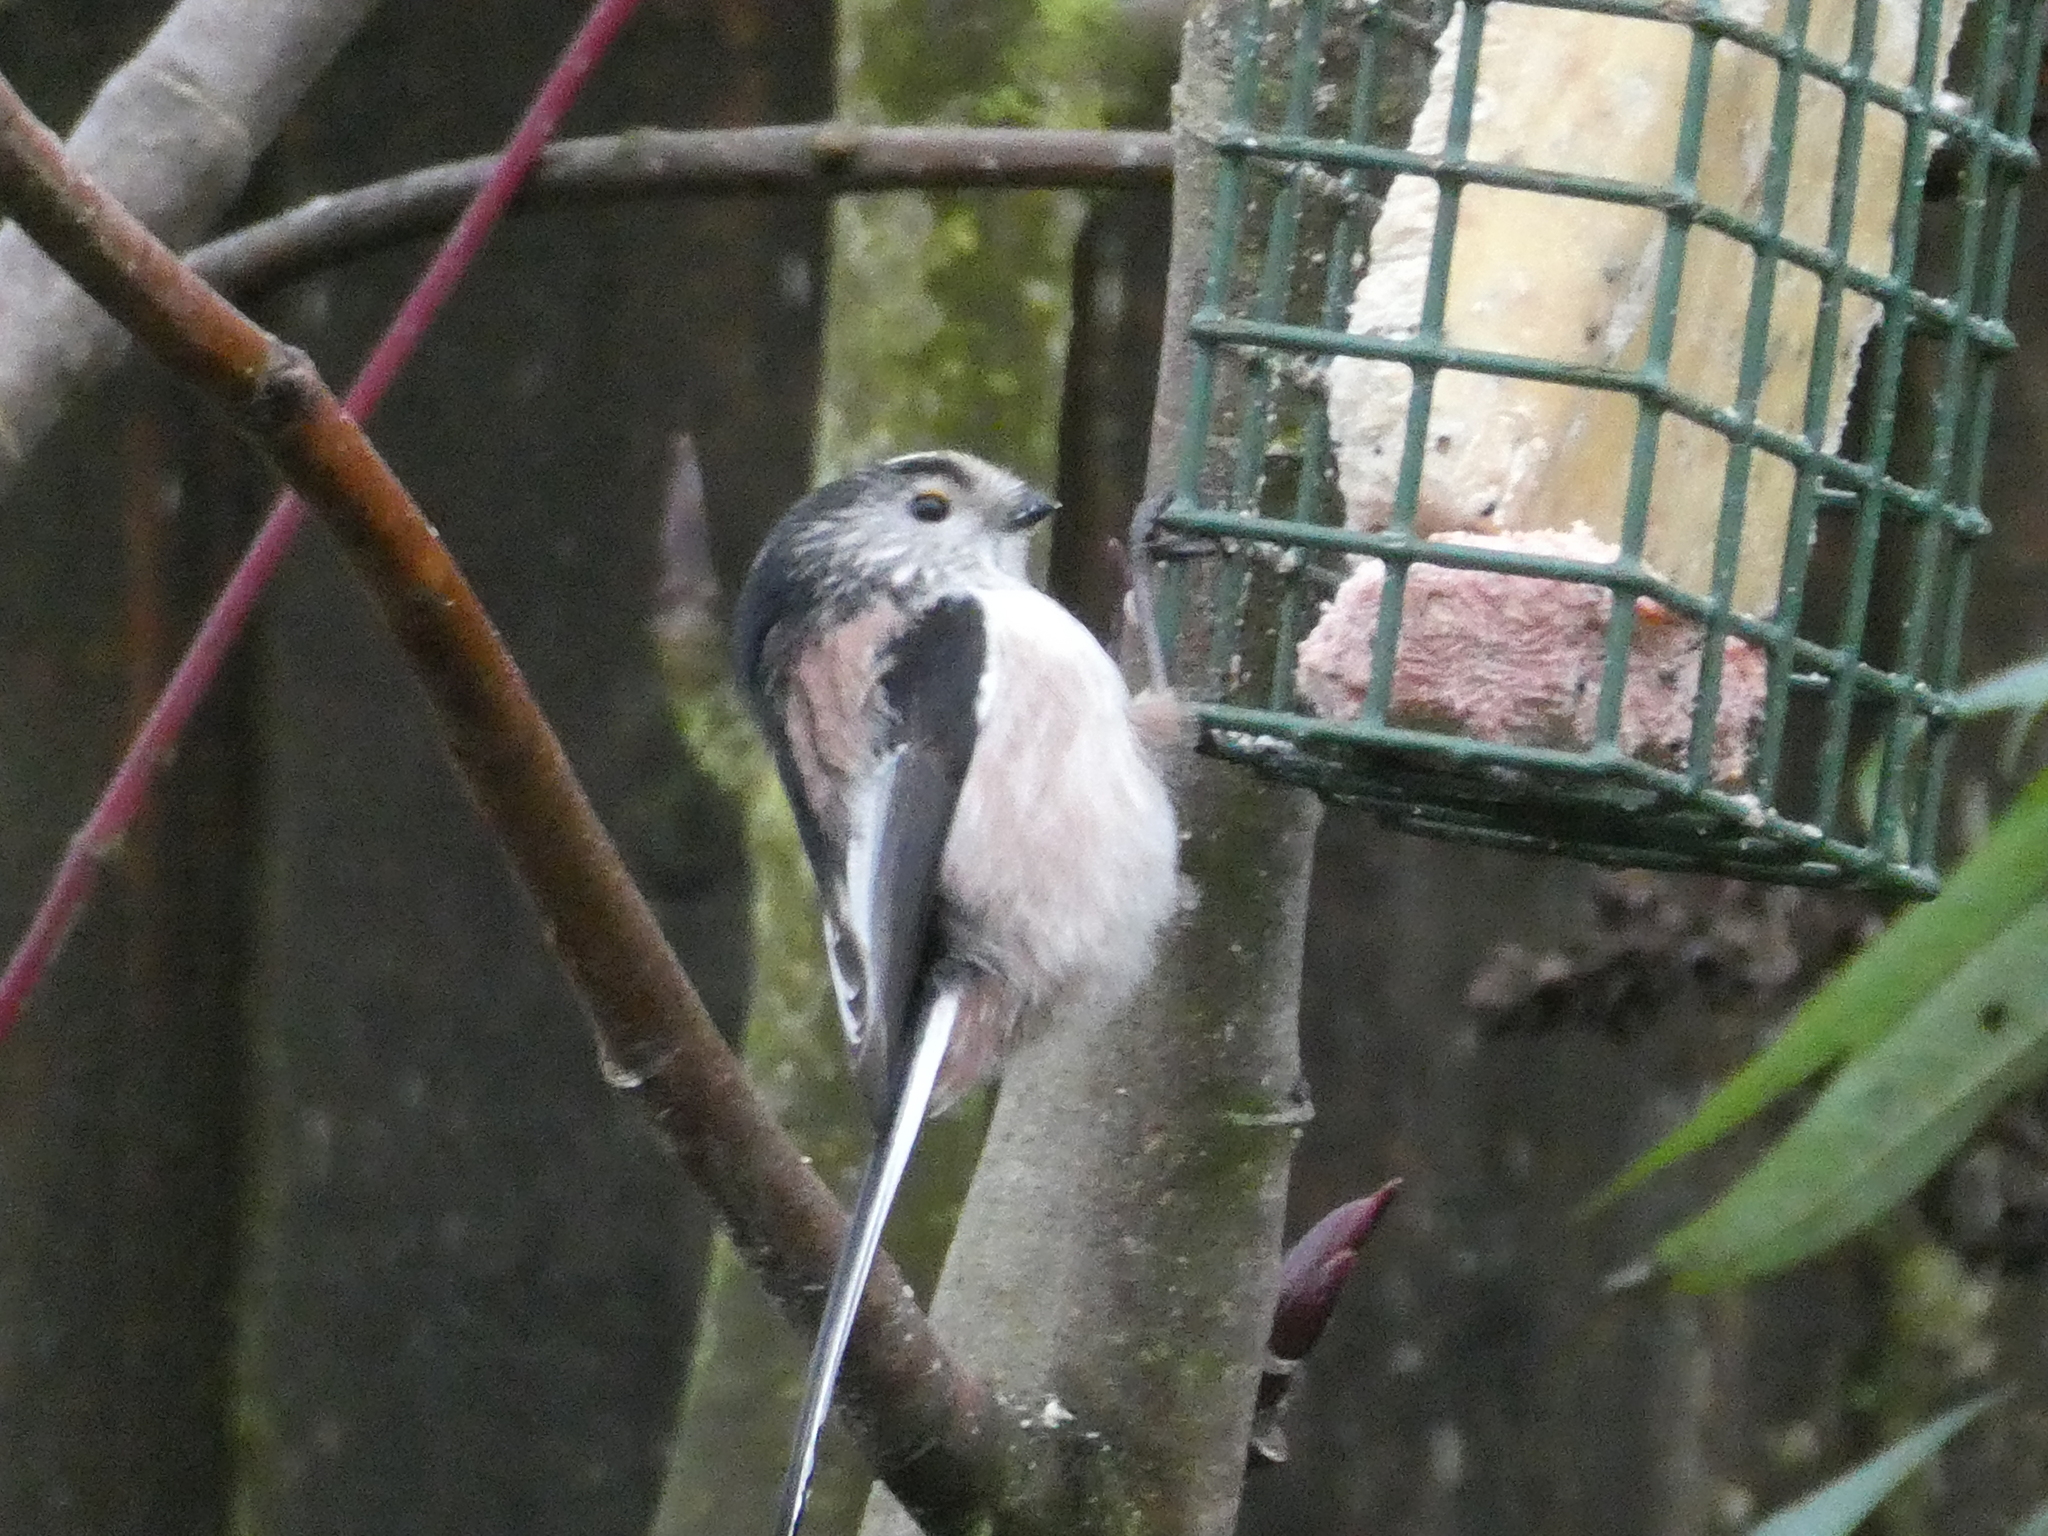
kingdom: Animalia
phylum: Chordata
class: Aves
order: Passeriformes
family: Aegithalidae
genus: Aegithalos
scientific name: Aegithalos caudatus
